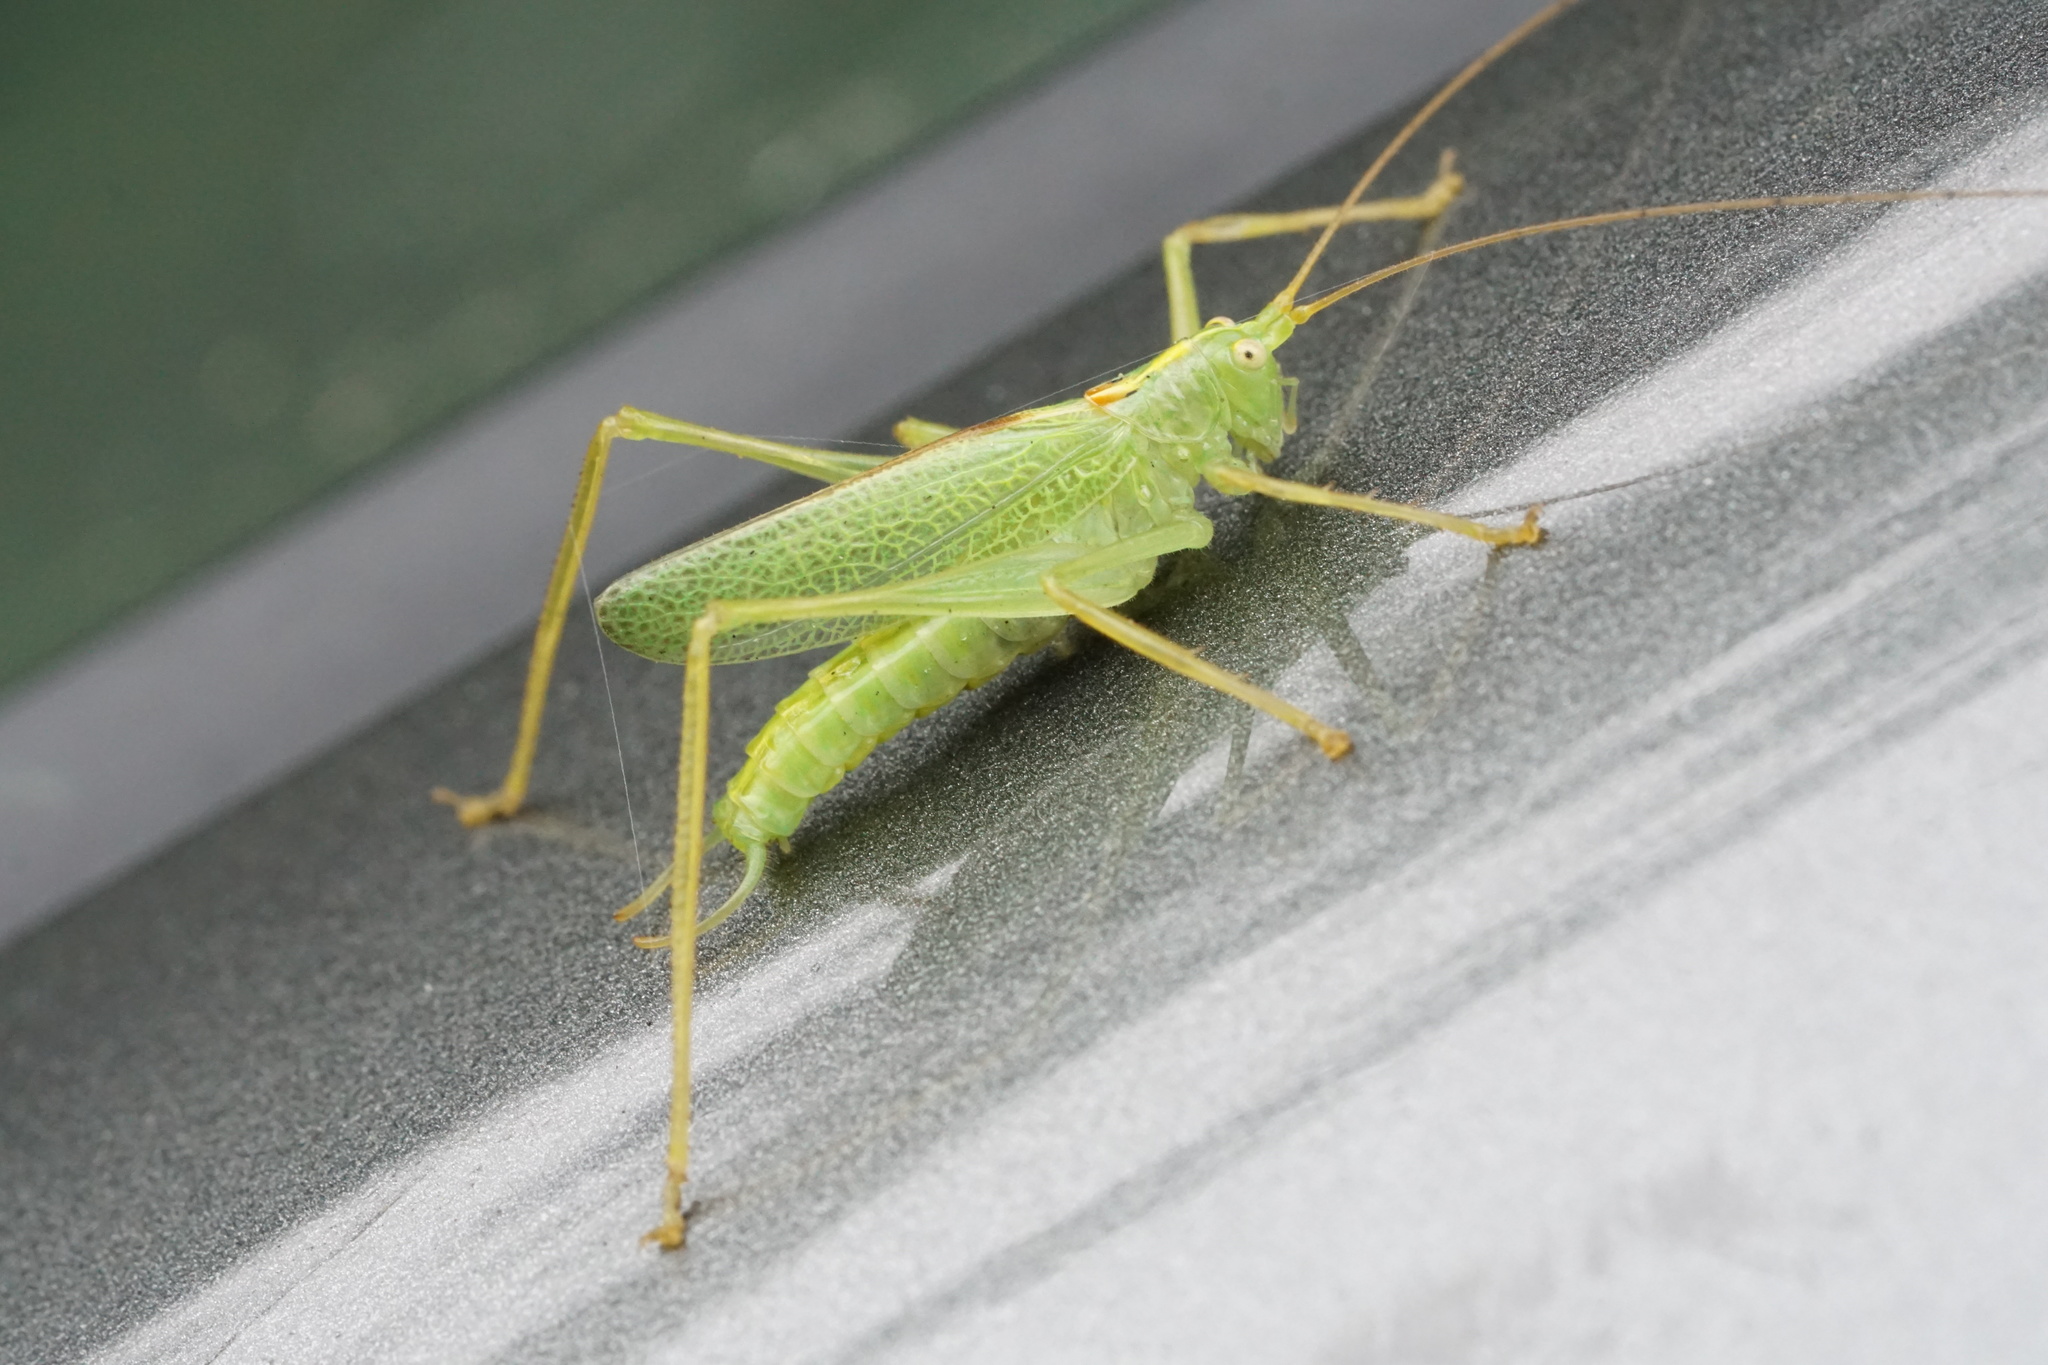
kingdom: Animalia
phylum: Arthropoda
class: Insecta
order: Orthoptera
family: Tettigoniidae
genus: Meconema
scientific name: Meconema thalassinum
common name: Oak bush-cricket
